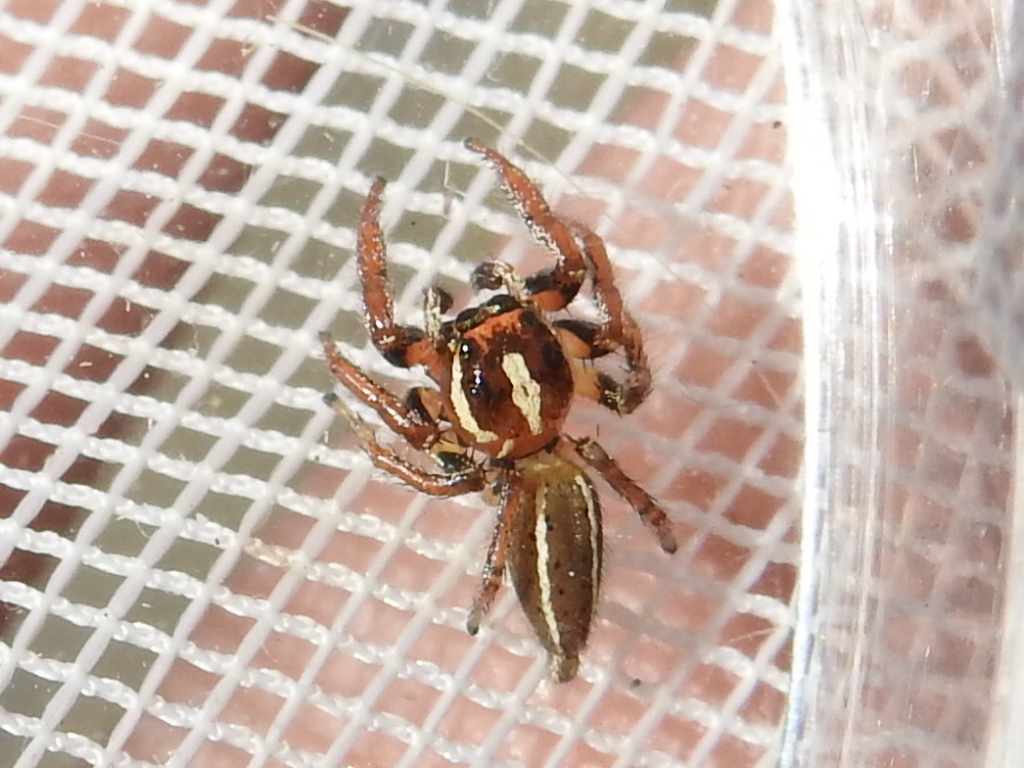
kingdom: Animalia
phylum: Arthropoda
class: Arachnida
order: Araneae
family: Salticidae
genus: Colonus
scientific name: Colonus puerperus
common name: Jumping spiders
